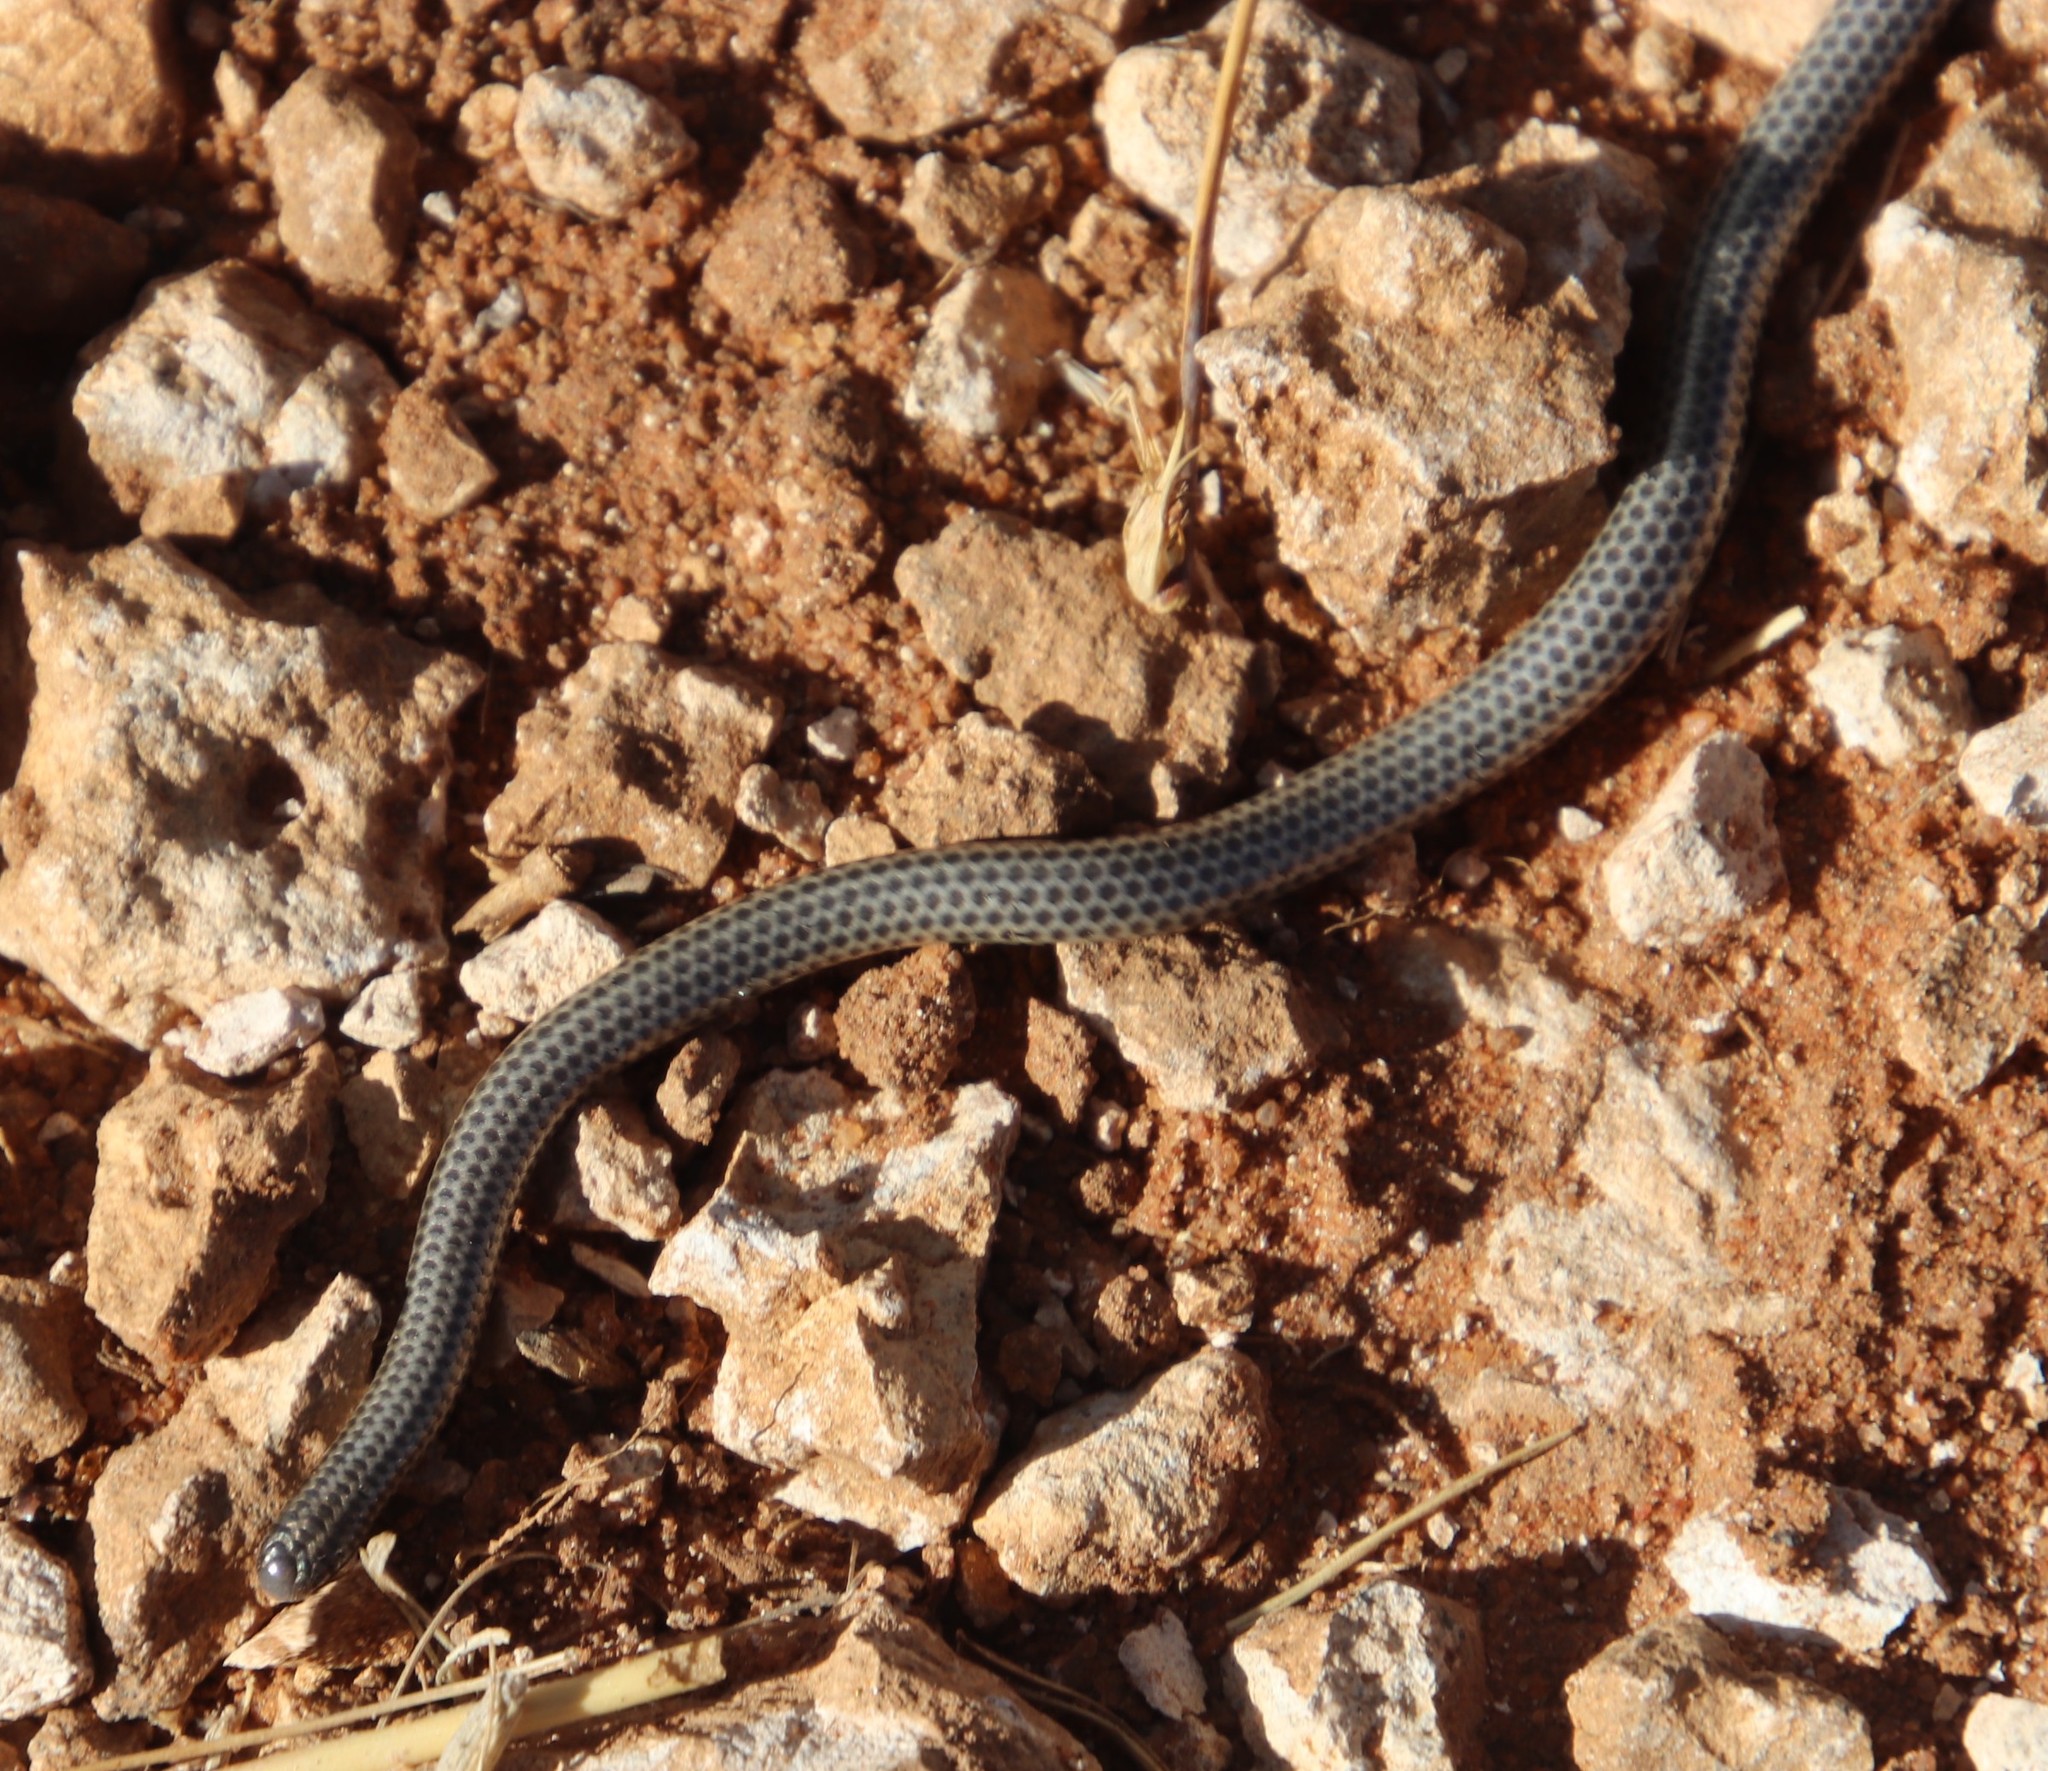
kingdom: Animalia
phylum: Chordata
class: Squamata
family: Leptotyphlopidae
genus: Leptotyphlops
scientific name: Leptotyphlops scutifrons
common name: Peter's thread snake
